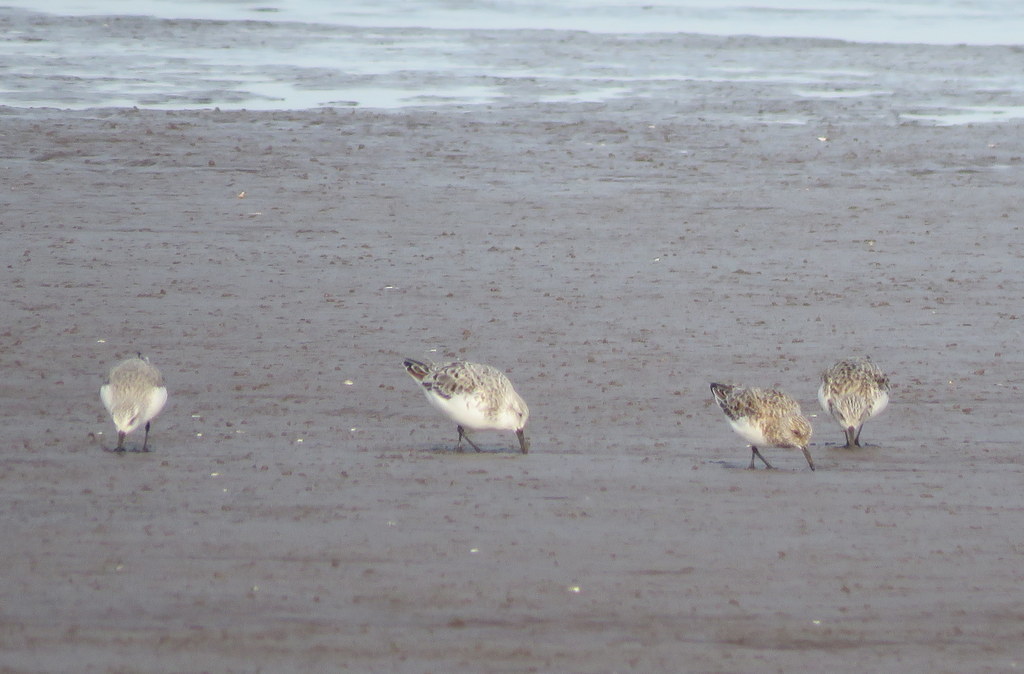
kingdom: Animalia
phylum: Chordata
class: Aves
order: Charadriiformes
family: Scolopacidae
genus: Calidris
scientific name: Calidris alba
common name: Sanderling
